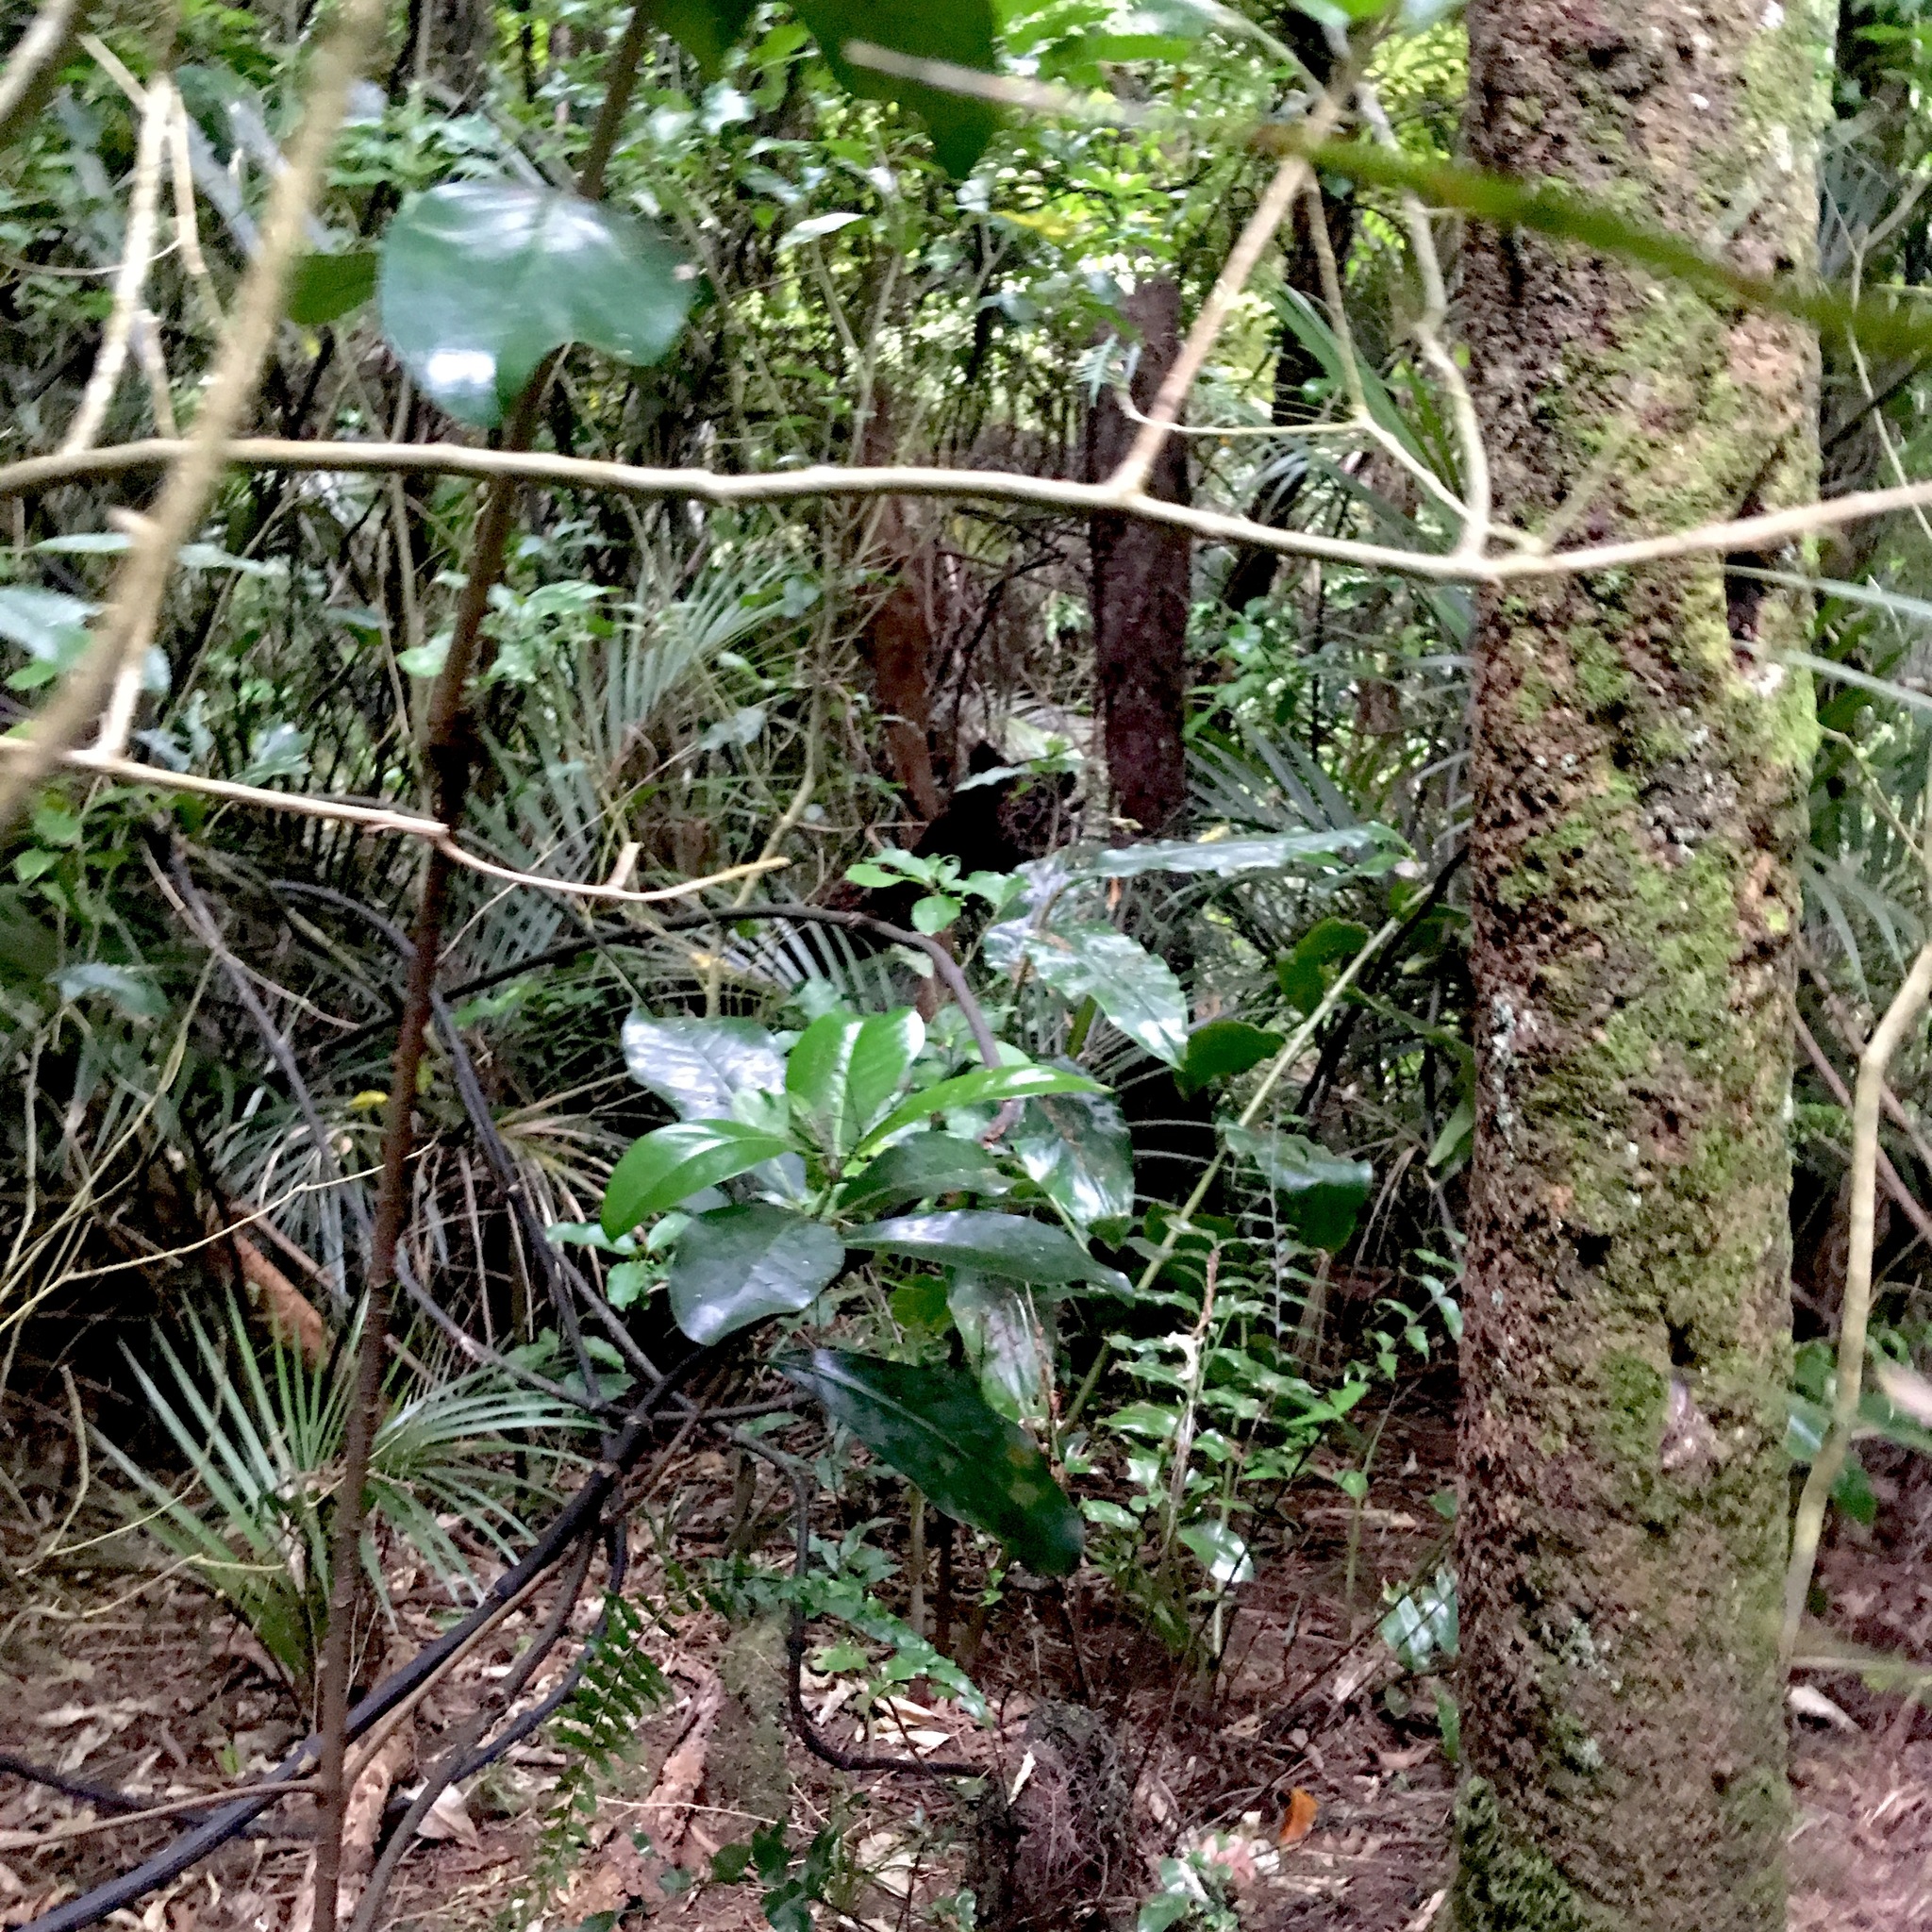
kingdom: Plantae
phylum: Tracheophyta
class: Liliopsida
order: Zingiberales
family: Zingiberaceae
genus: Hedychium
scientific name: Hedychium gardnerianum
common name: Himalayan ginger
